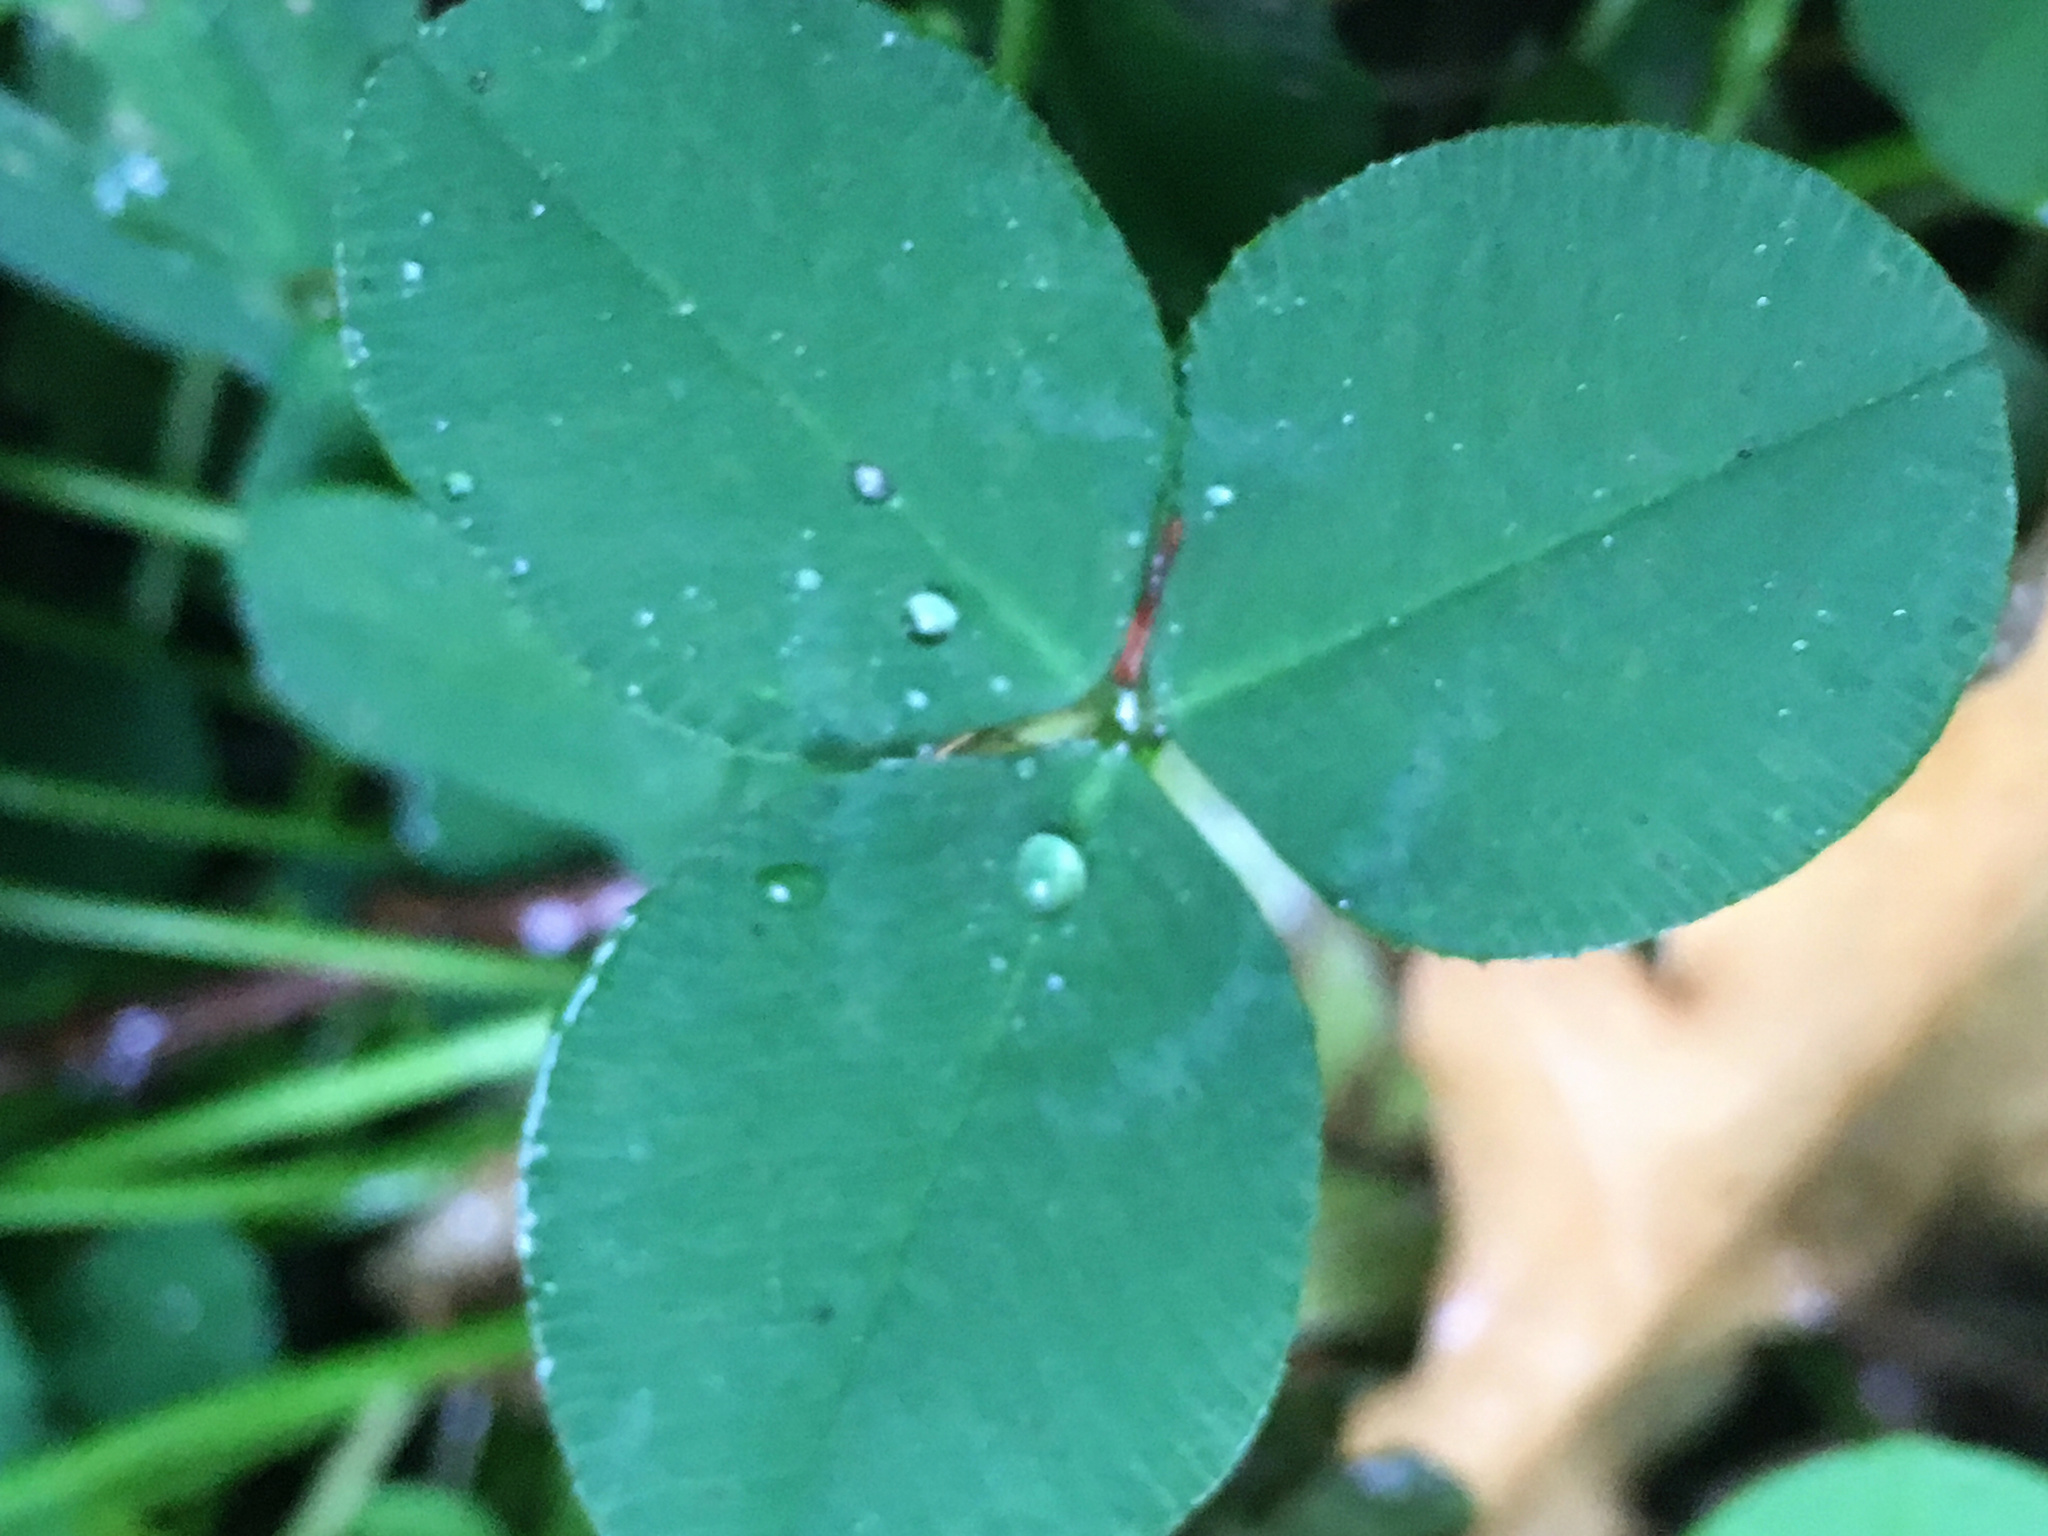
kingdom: Plantae
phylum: Tracheophyta
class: Magnoliopsida
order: Fabales
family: Fabaceae
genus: Trifolium
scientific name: Trifolium repens
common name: White clover
